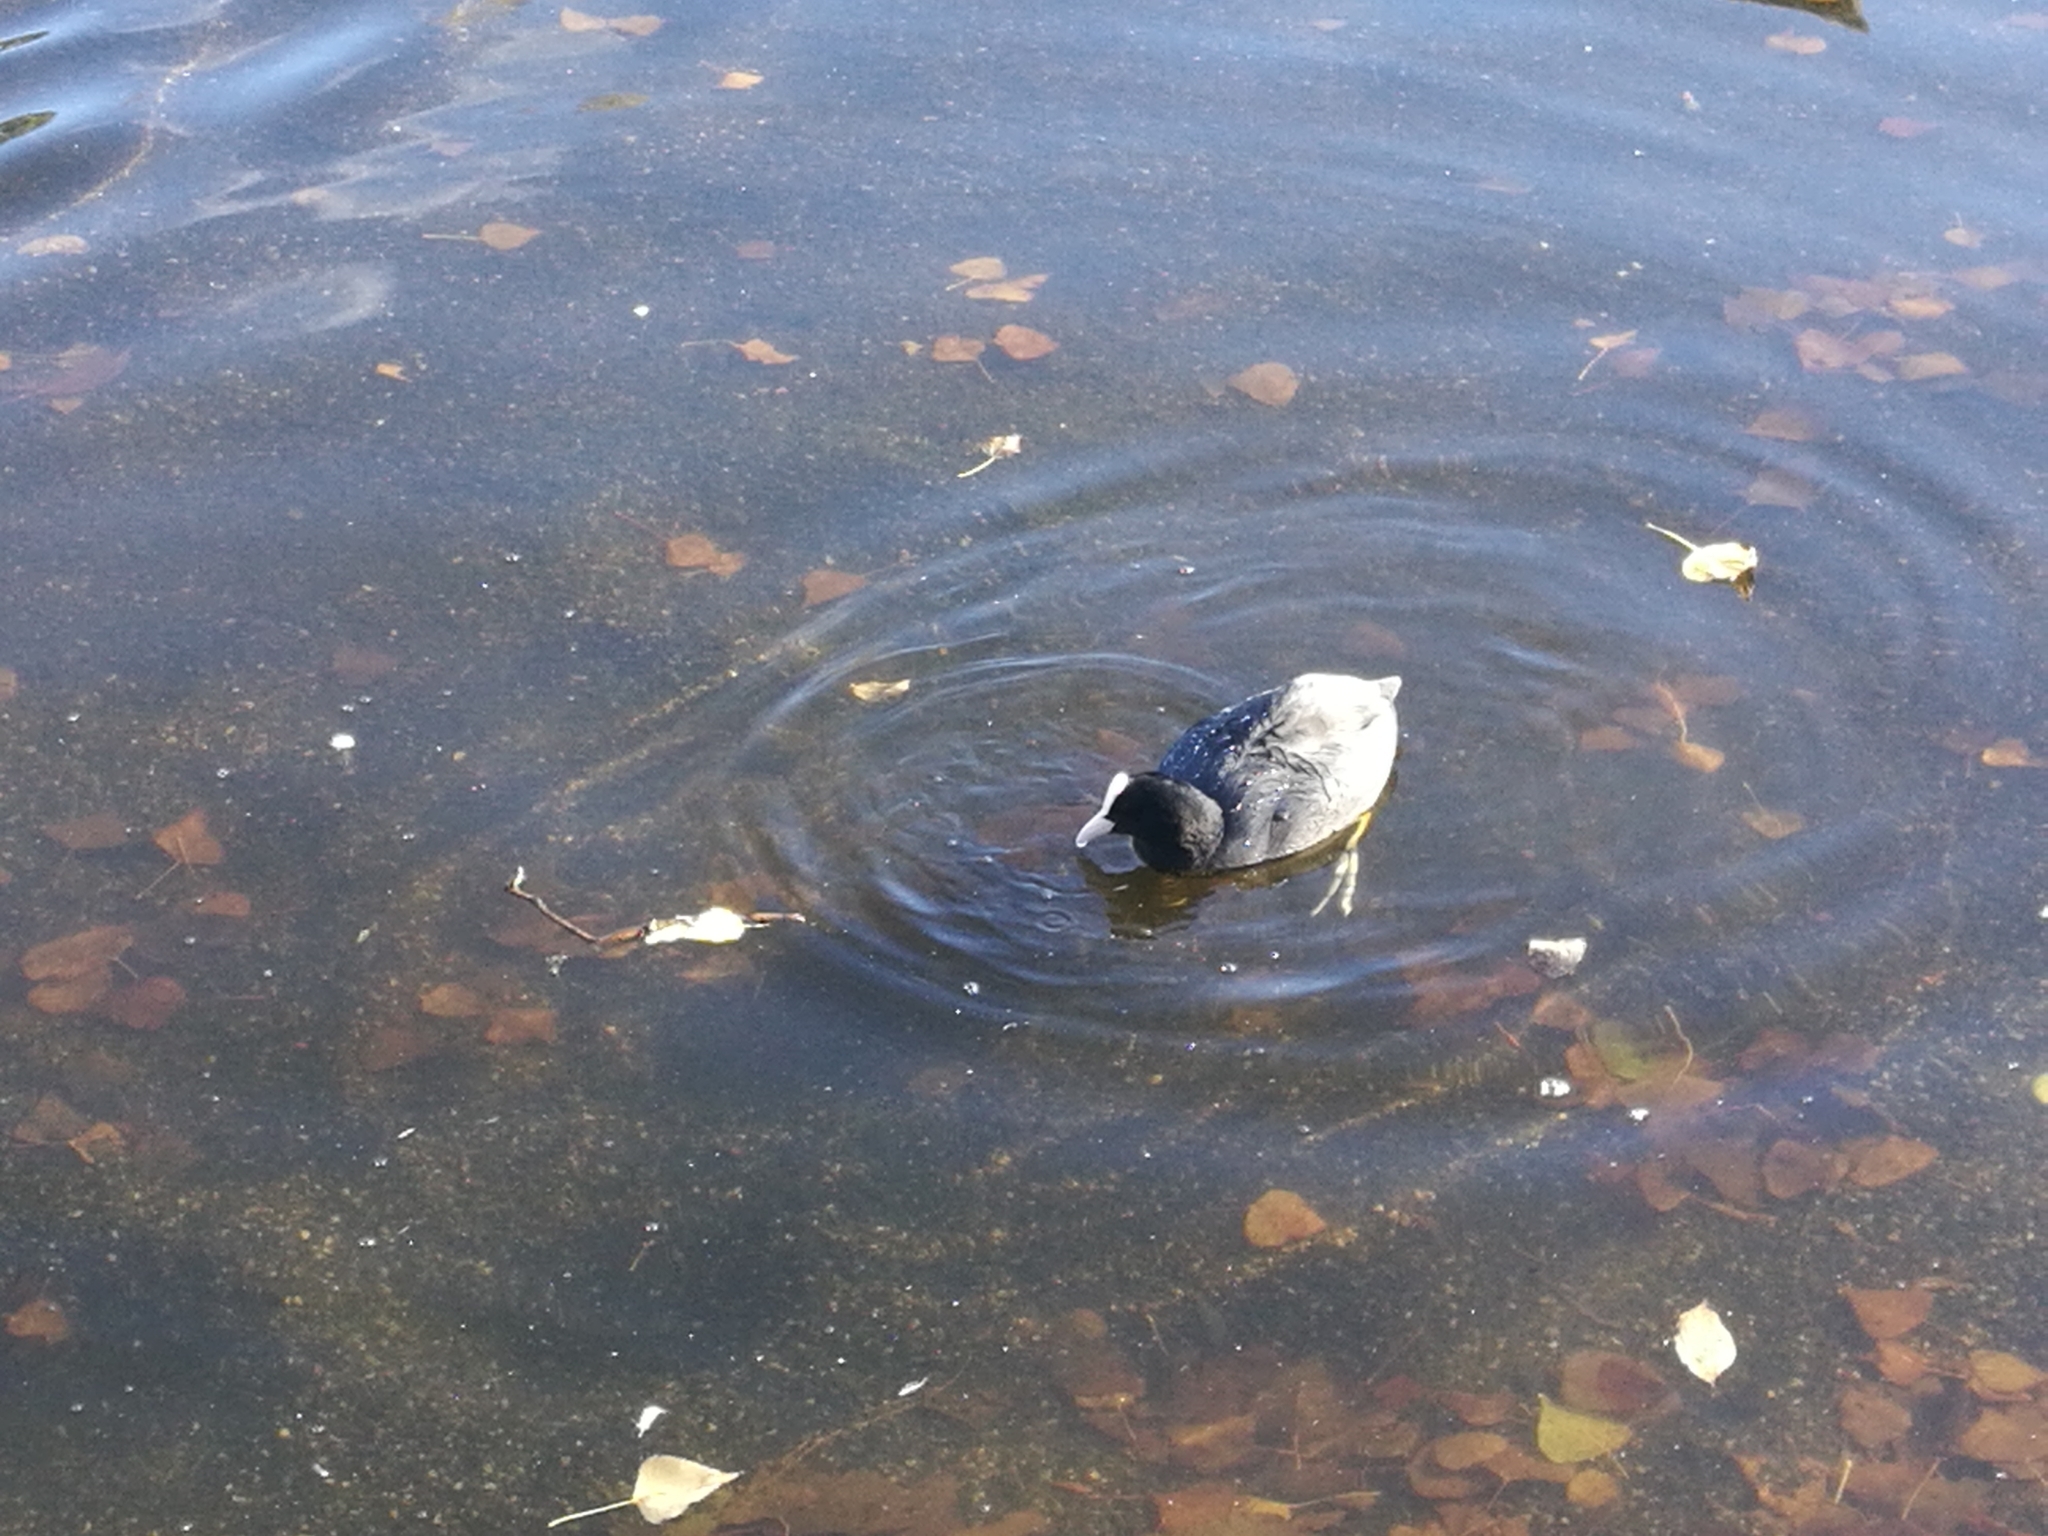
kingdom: Animalia
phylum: Chordata
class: Aves
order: Gruiformes
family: Rallidae
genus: Fulica
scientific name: Fulica atra
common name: Eurasian coot
